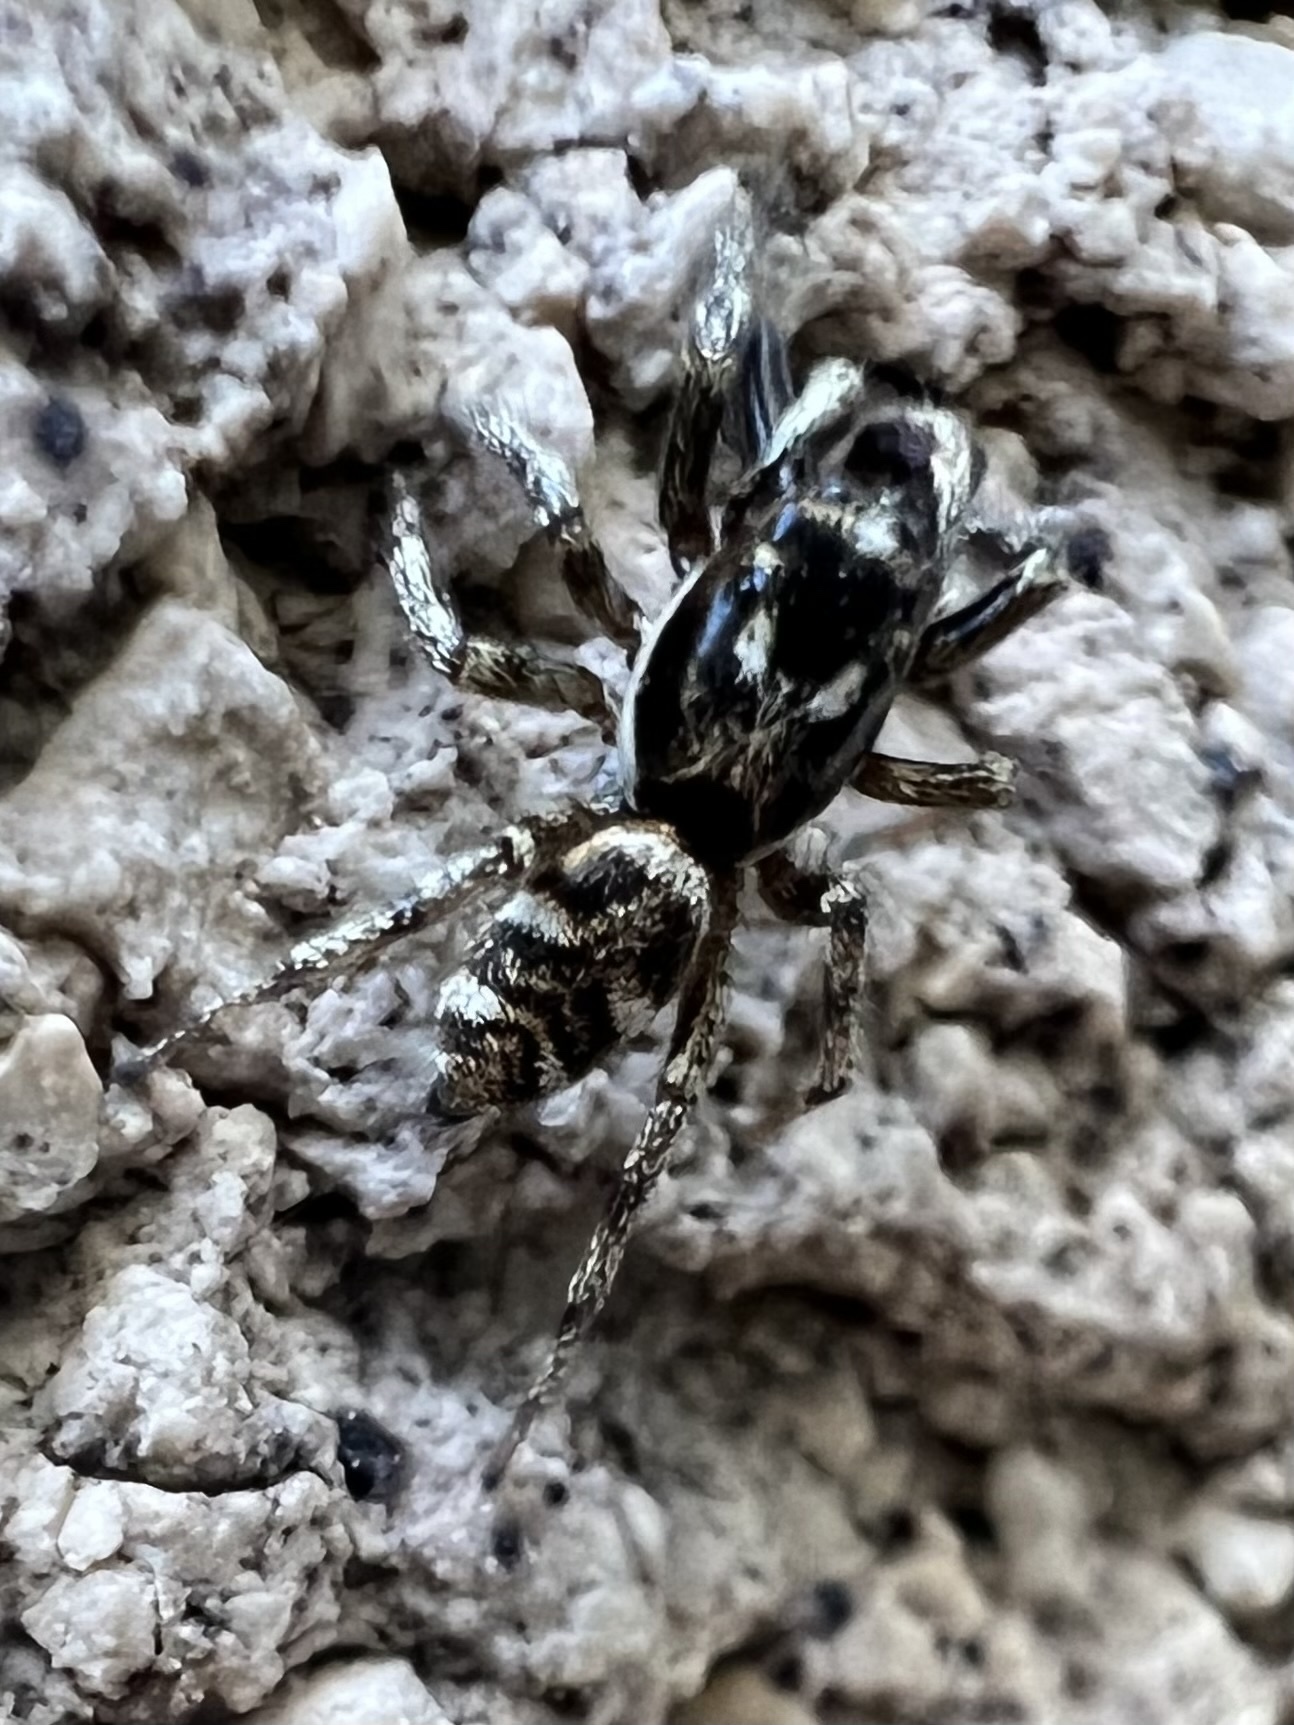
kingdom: Animalia
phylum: Arthropoda
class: Arachnida
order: Araneae
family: Salticidae
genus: Salticus
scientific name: Salticus scenicus
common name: Zebra jumper
